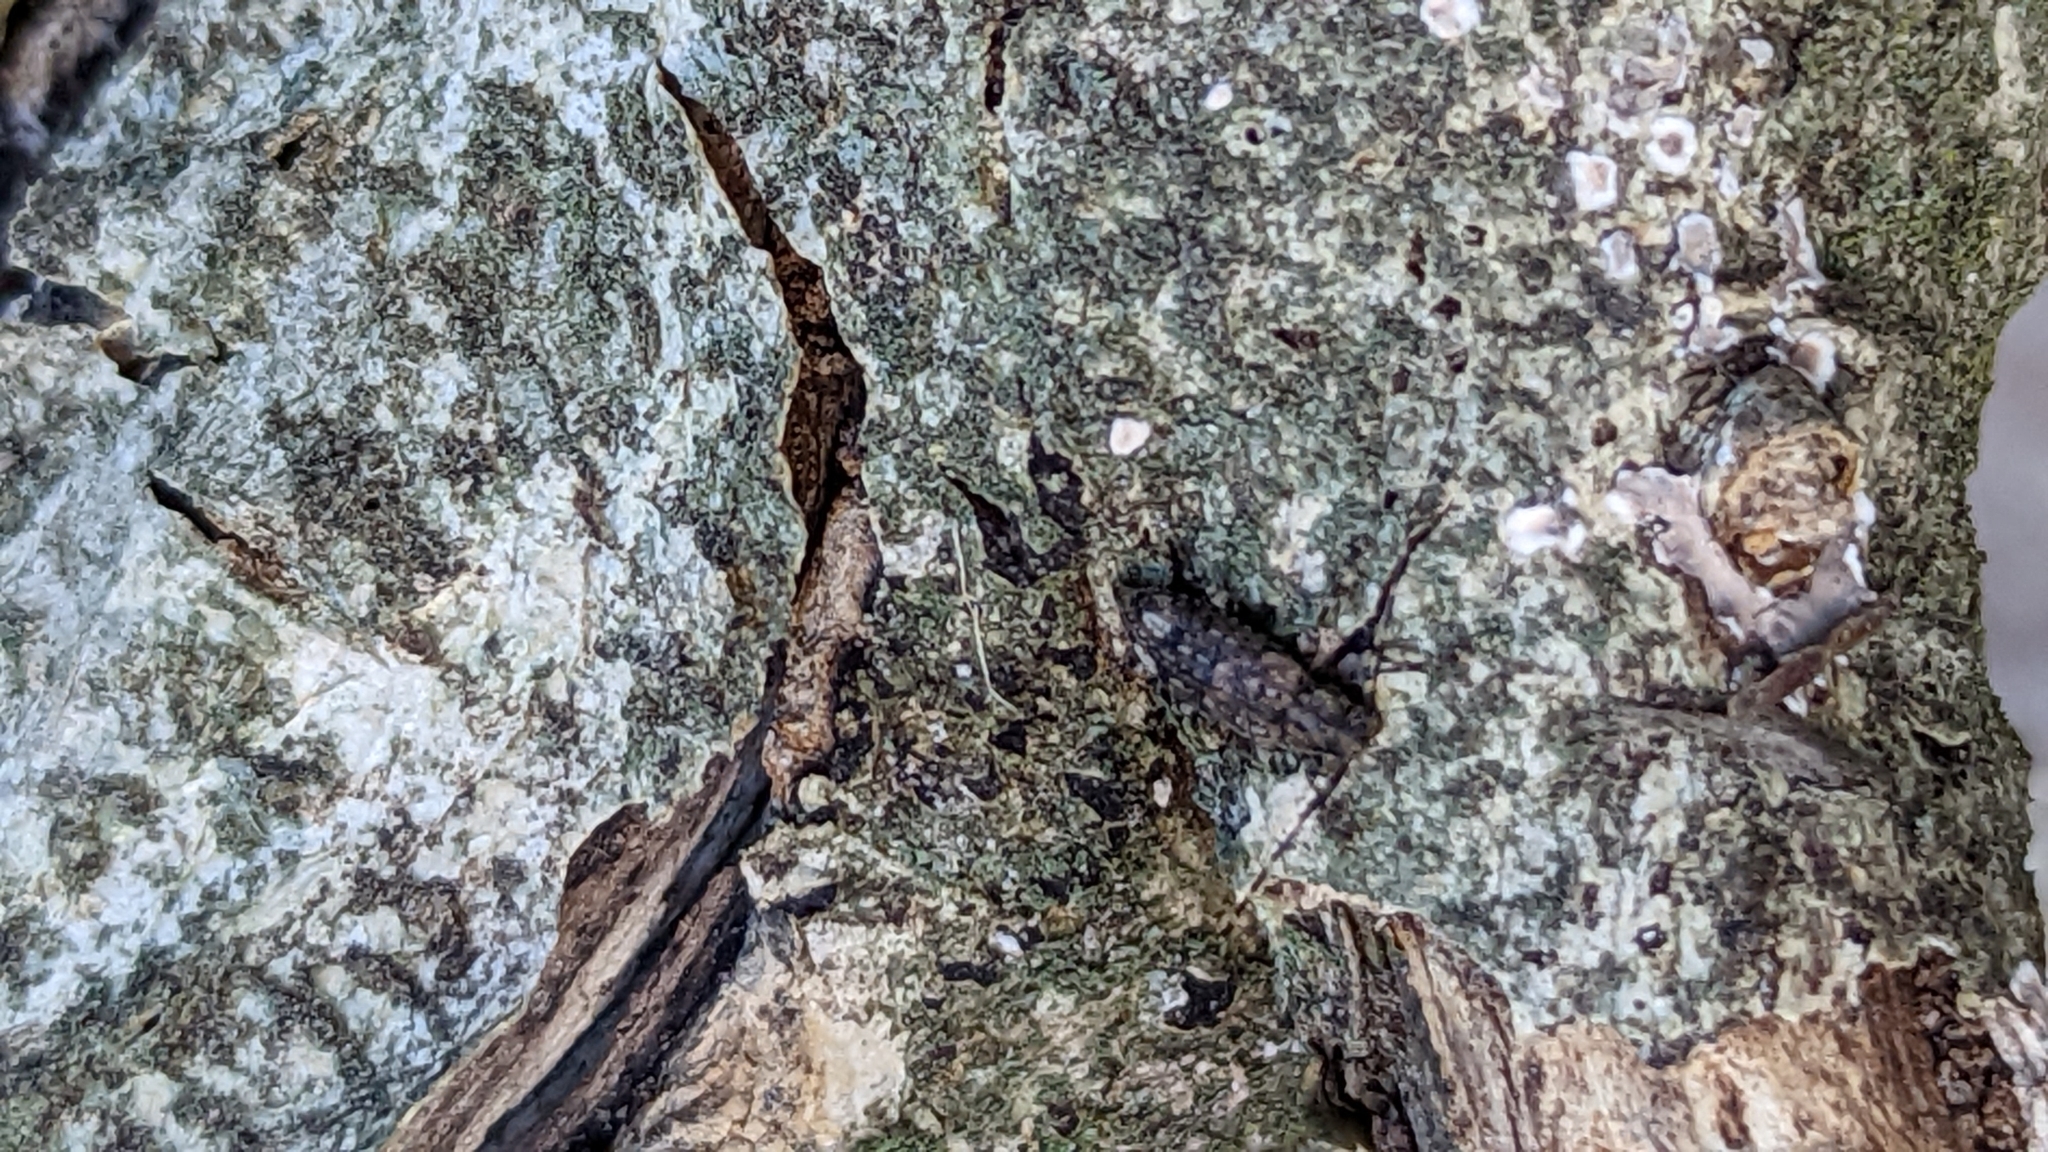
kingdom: Animalia
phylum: Arthropoda
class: Insecta
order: Coleoptera
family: Cerambycidae
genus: Astyleiopus
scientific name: Astyleiopus variegatus
